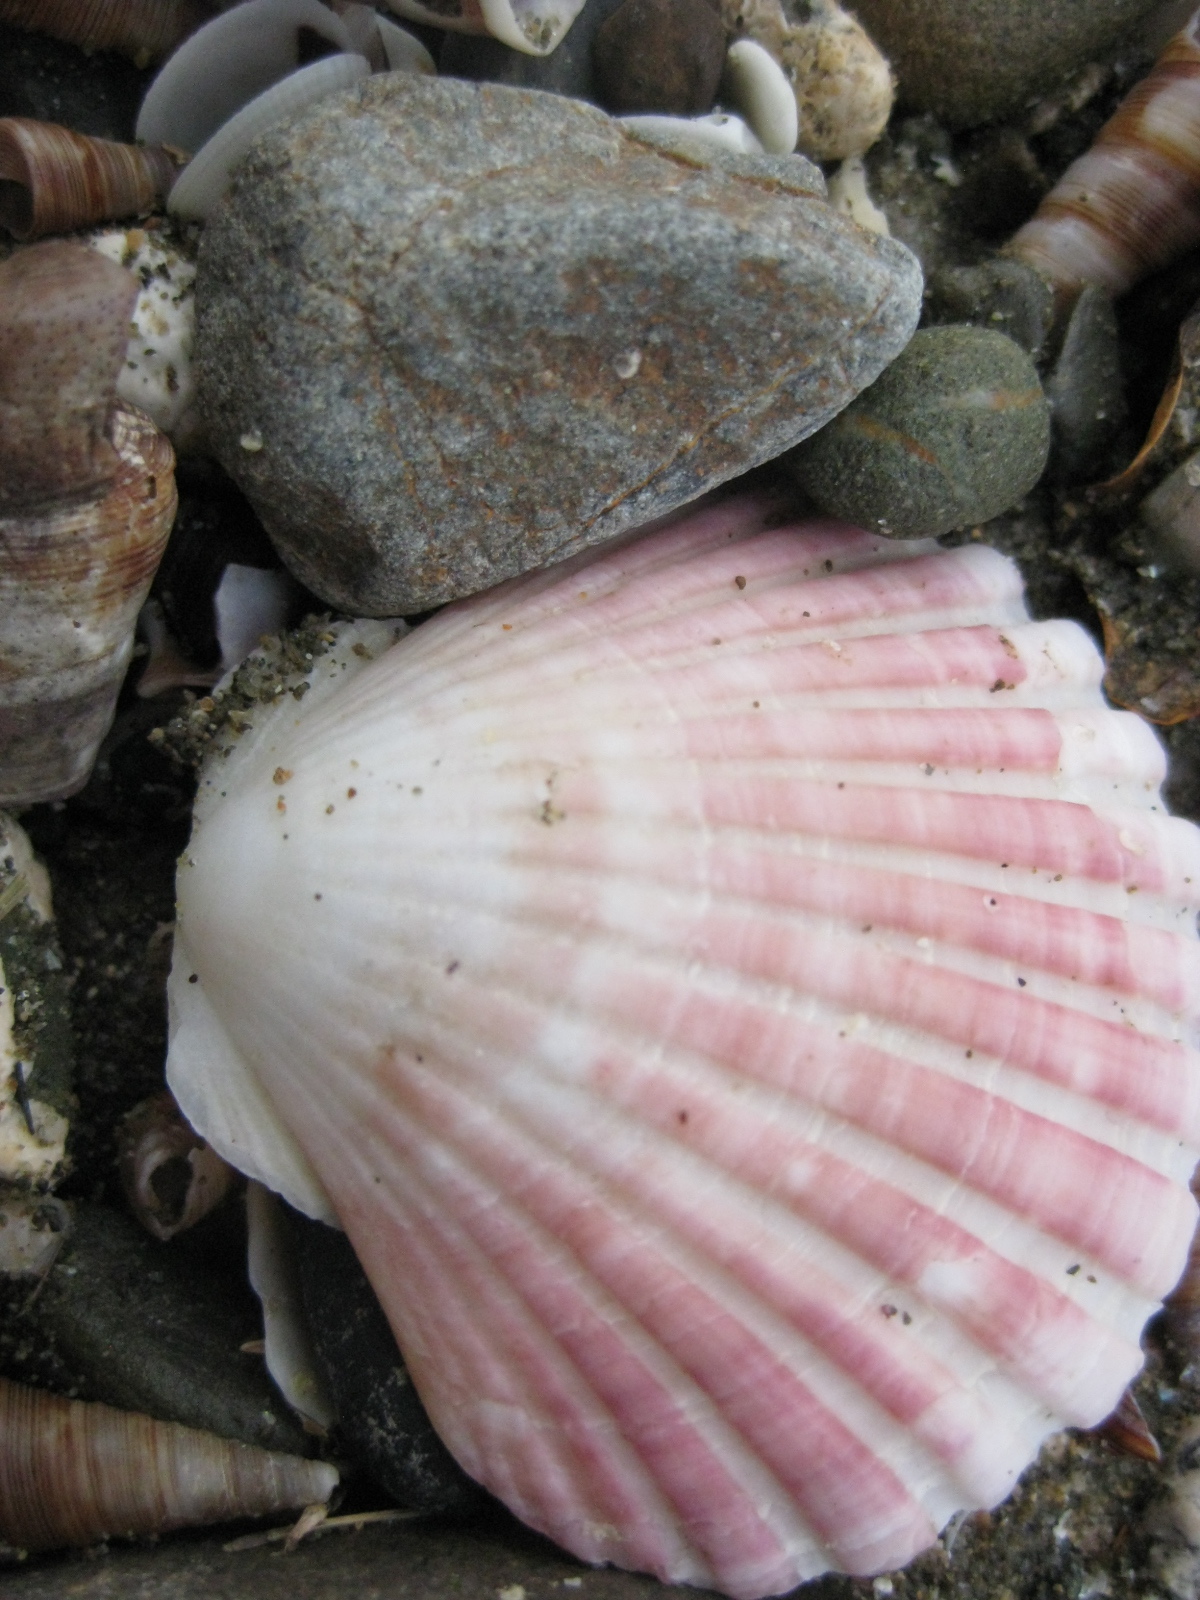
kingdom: Animalia
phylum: Mollusca
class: Bivalvia
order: Pectinida
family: Pectinidae
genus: Pecten
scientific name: Pecten novaezelandiae
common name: New zealand scallop
